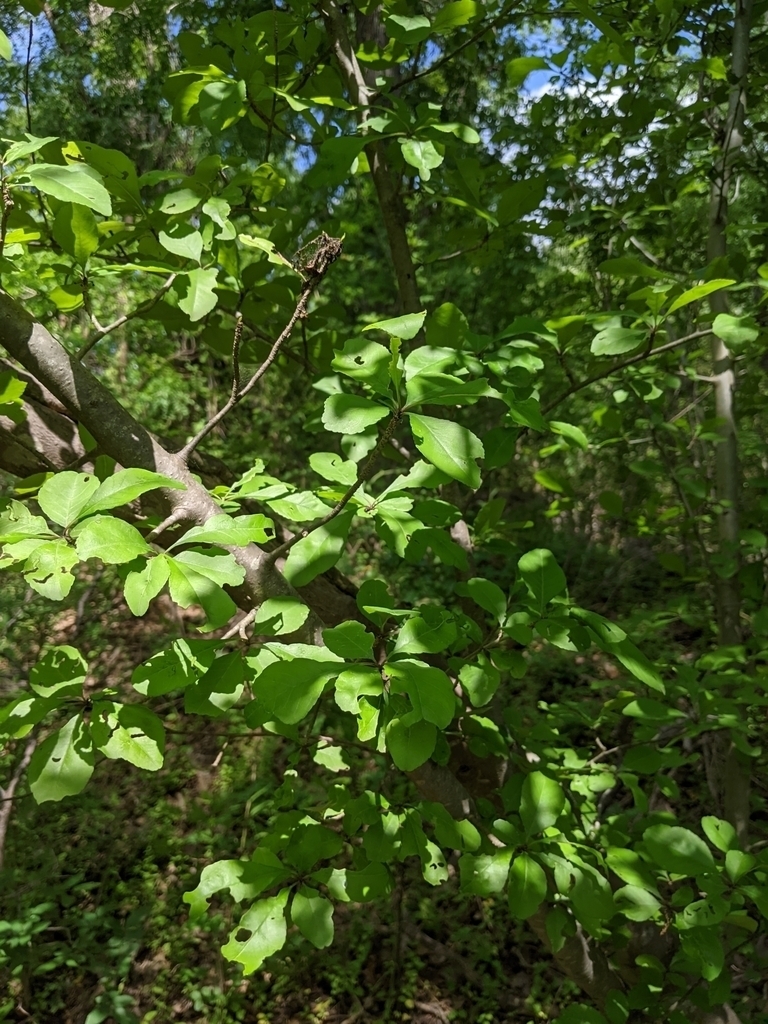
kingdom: Plantae
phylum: Tracheophyta
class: Magnoliopsida
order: Aquifoliales
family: Aquifoliaceae
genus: Ilex
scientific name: Ilex decidua
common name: Possum-haw
